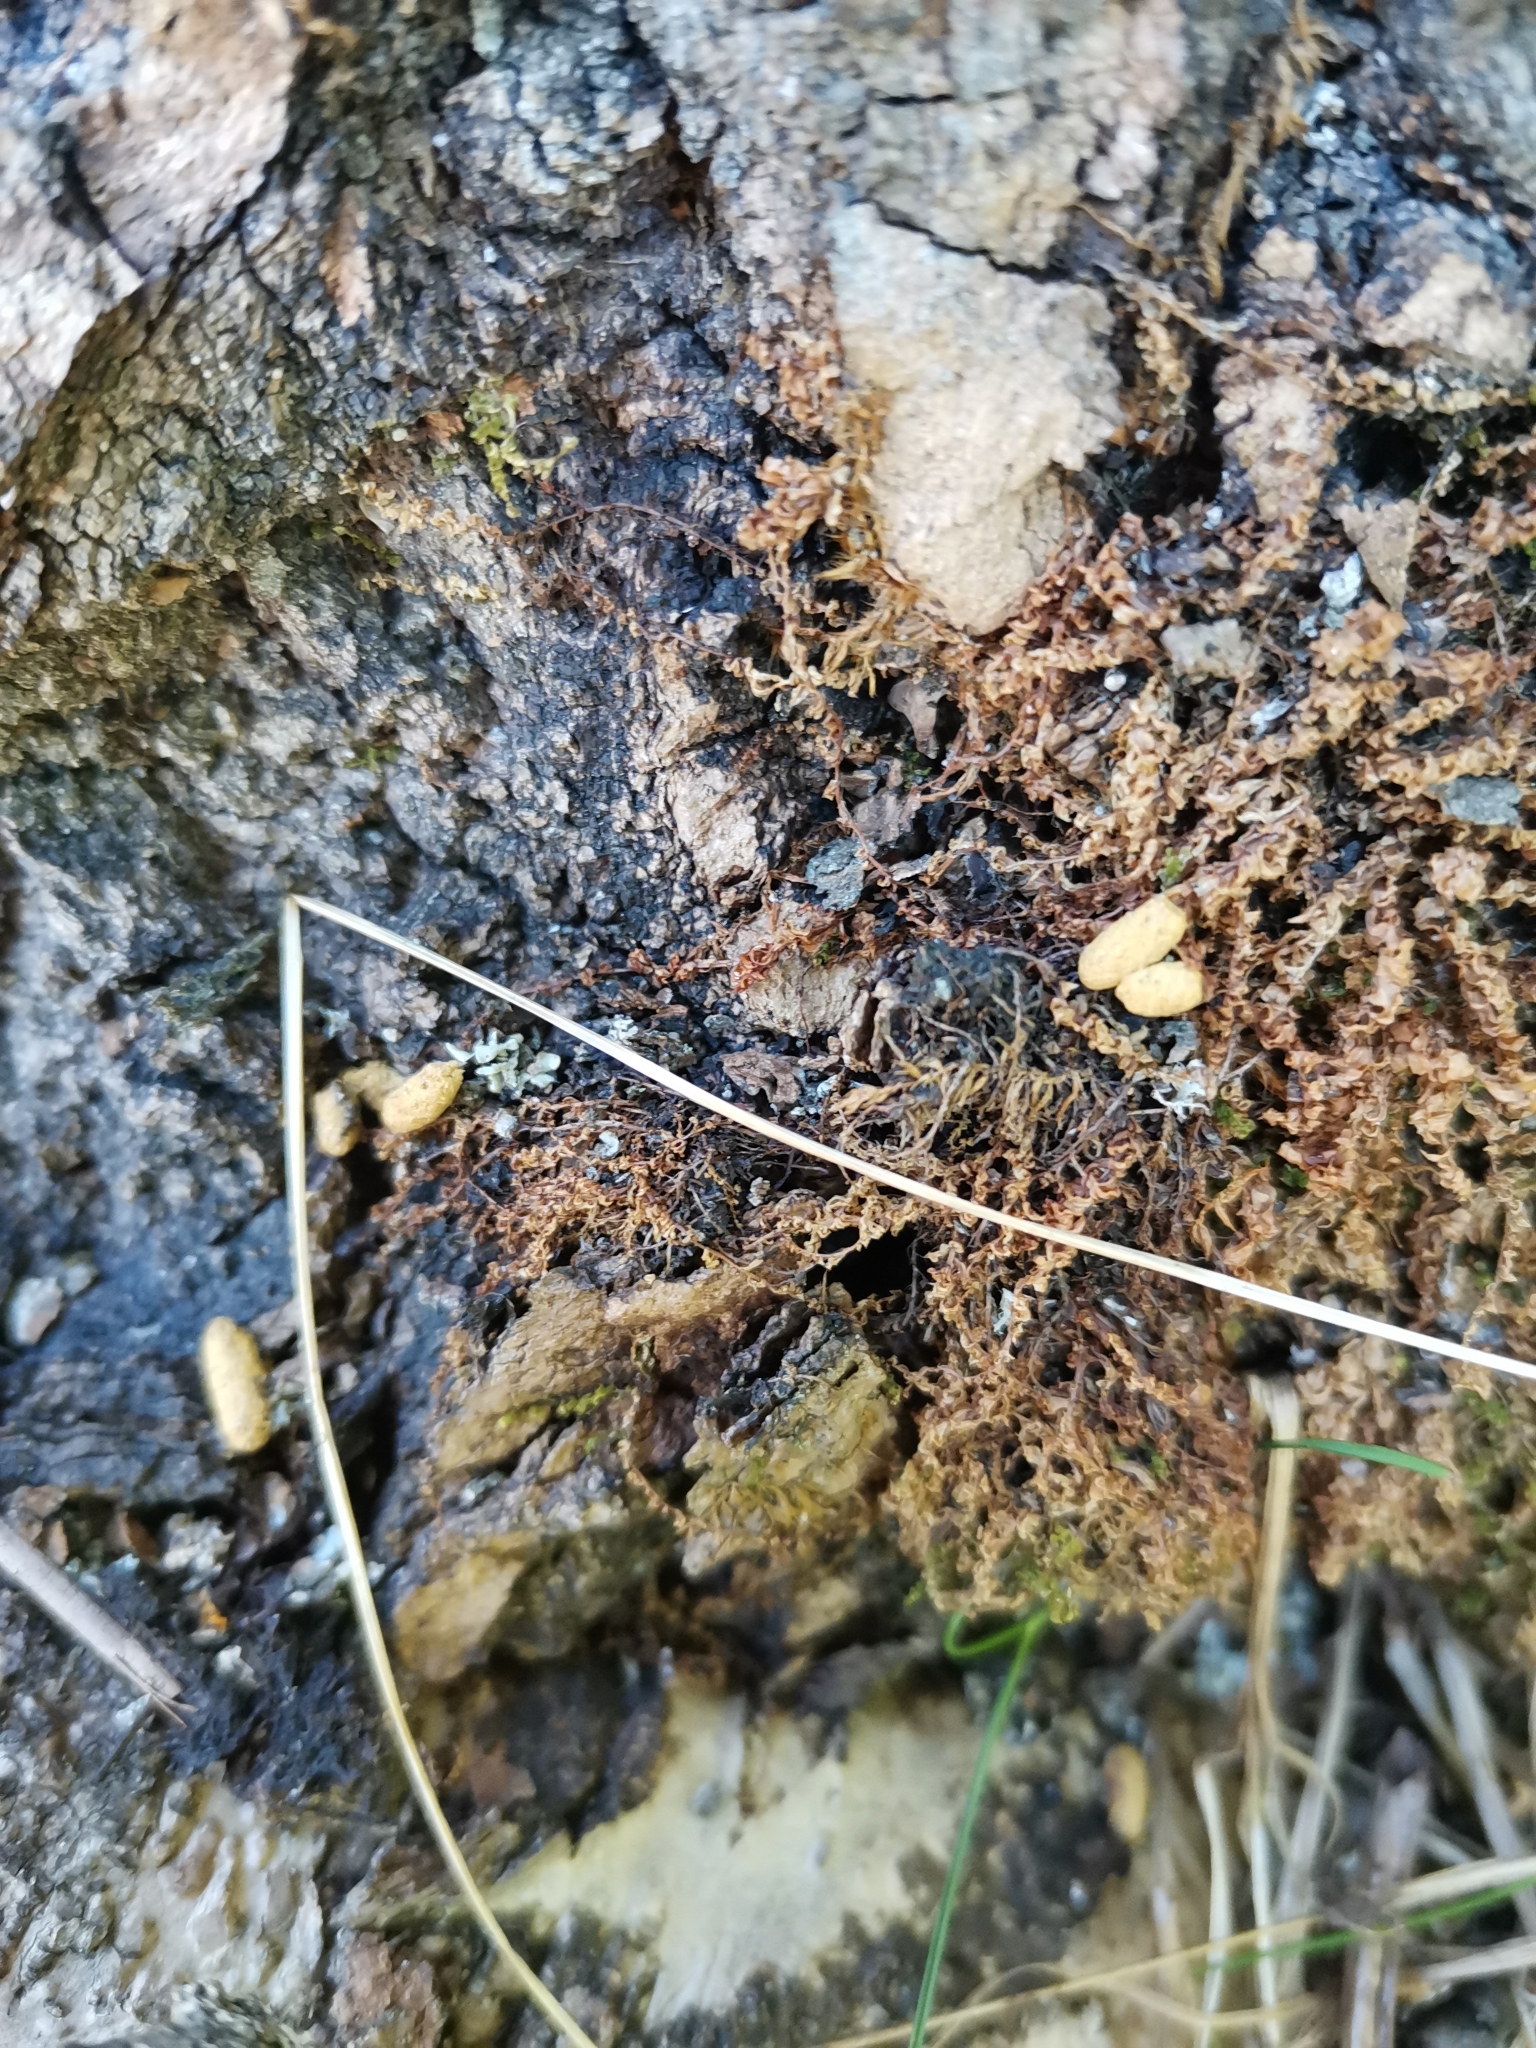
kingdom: Animalia
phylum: Chordata
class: Mammalia
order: Rodentia
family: Sciuridae
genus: Pteromys
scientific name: Pteromys volans
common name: Siberian flying squirrel
